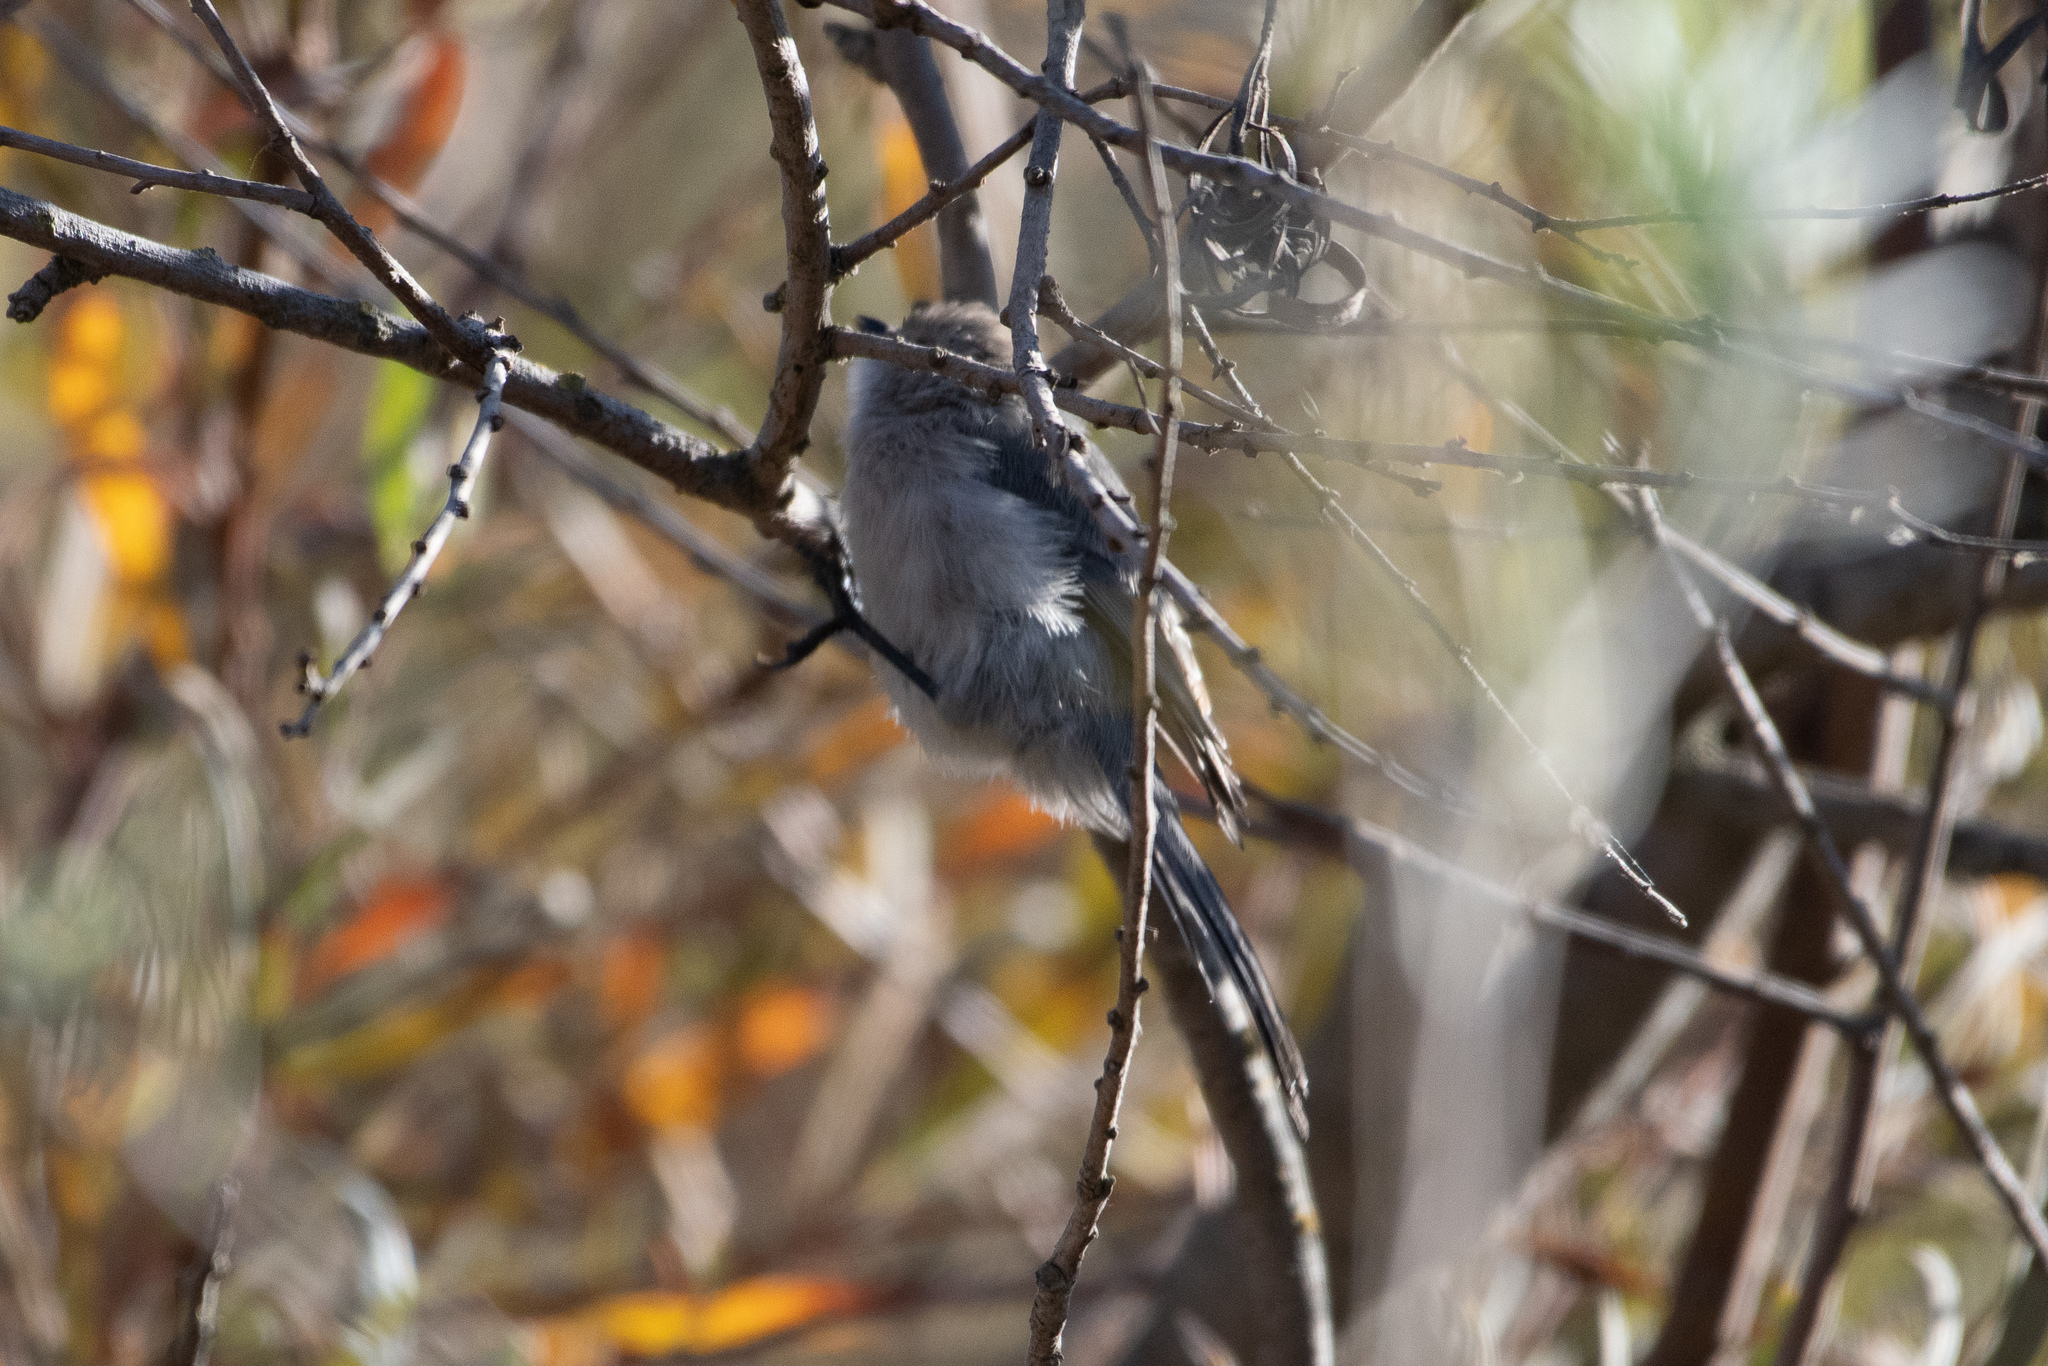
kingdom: Animalia
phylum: Chordata
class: Aves
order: Passeriformes
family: Aegithalidae
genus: Psaltriparus
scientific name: Psaltriparus minimus
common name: American bushtit
